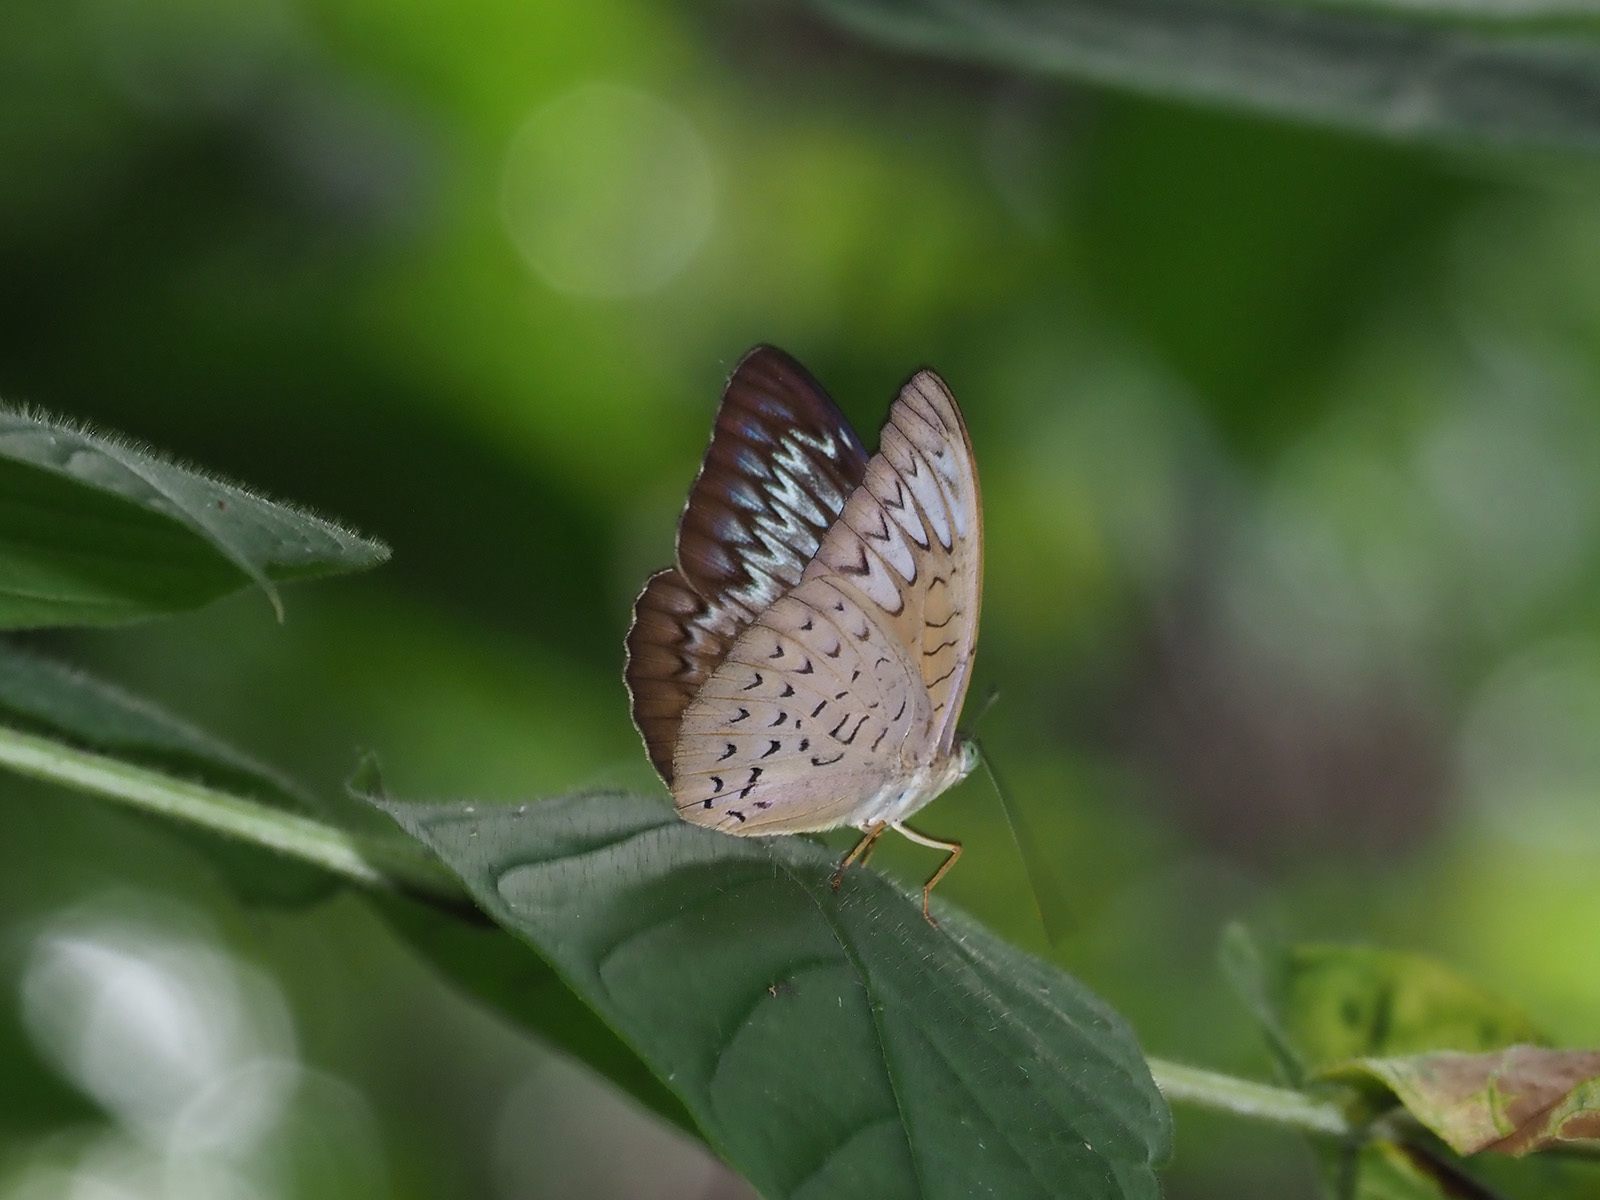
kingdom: Animalia
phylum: Arthropoda
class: Insecta
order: Lepidoptera
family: Nymphalidae
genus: Tanaecia
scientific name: Tanaecia pelea
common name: Malay viscount
